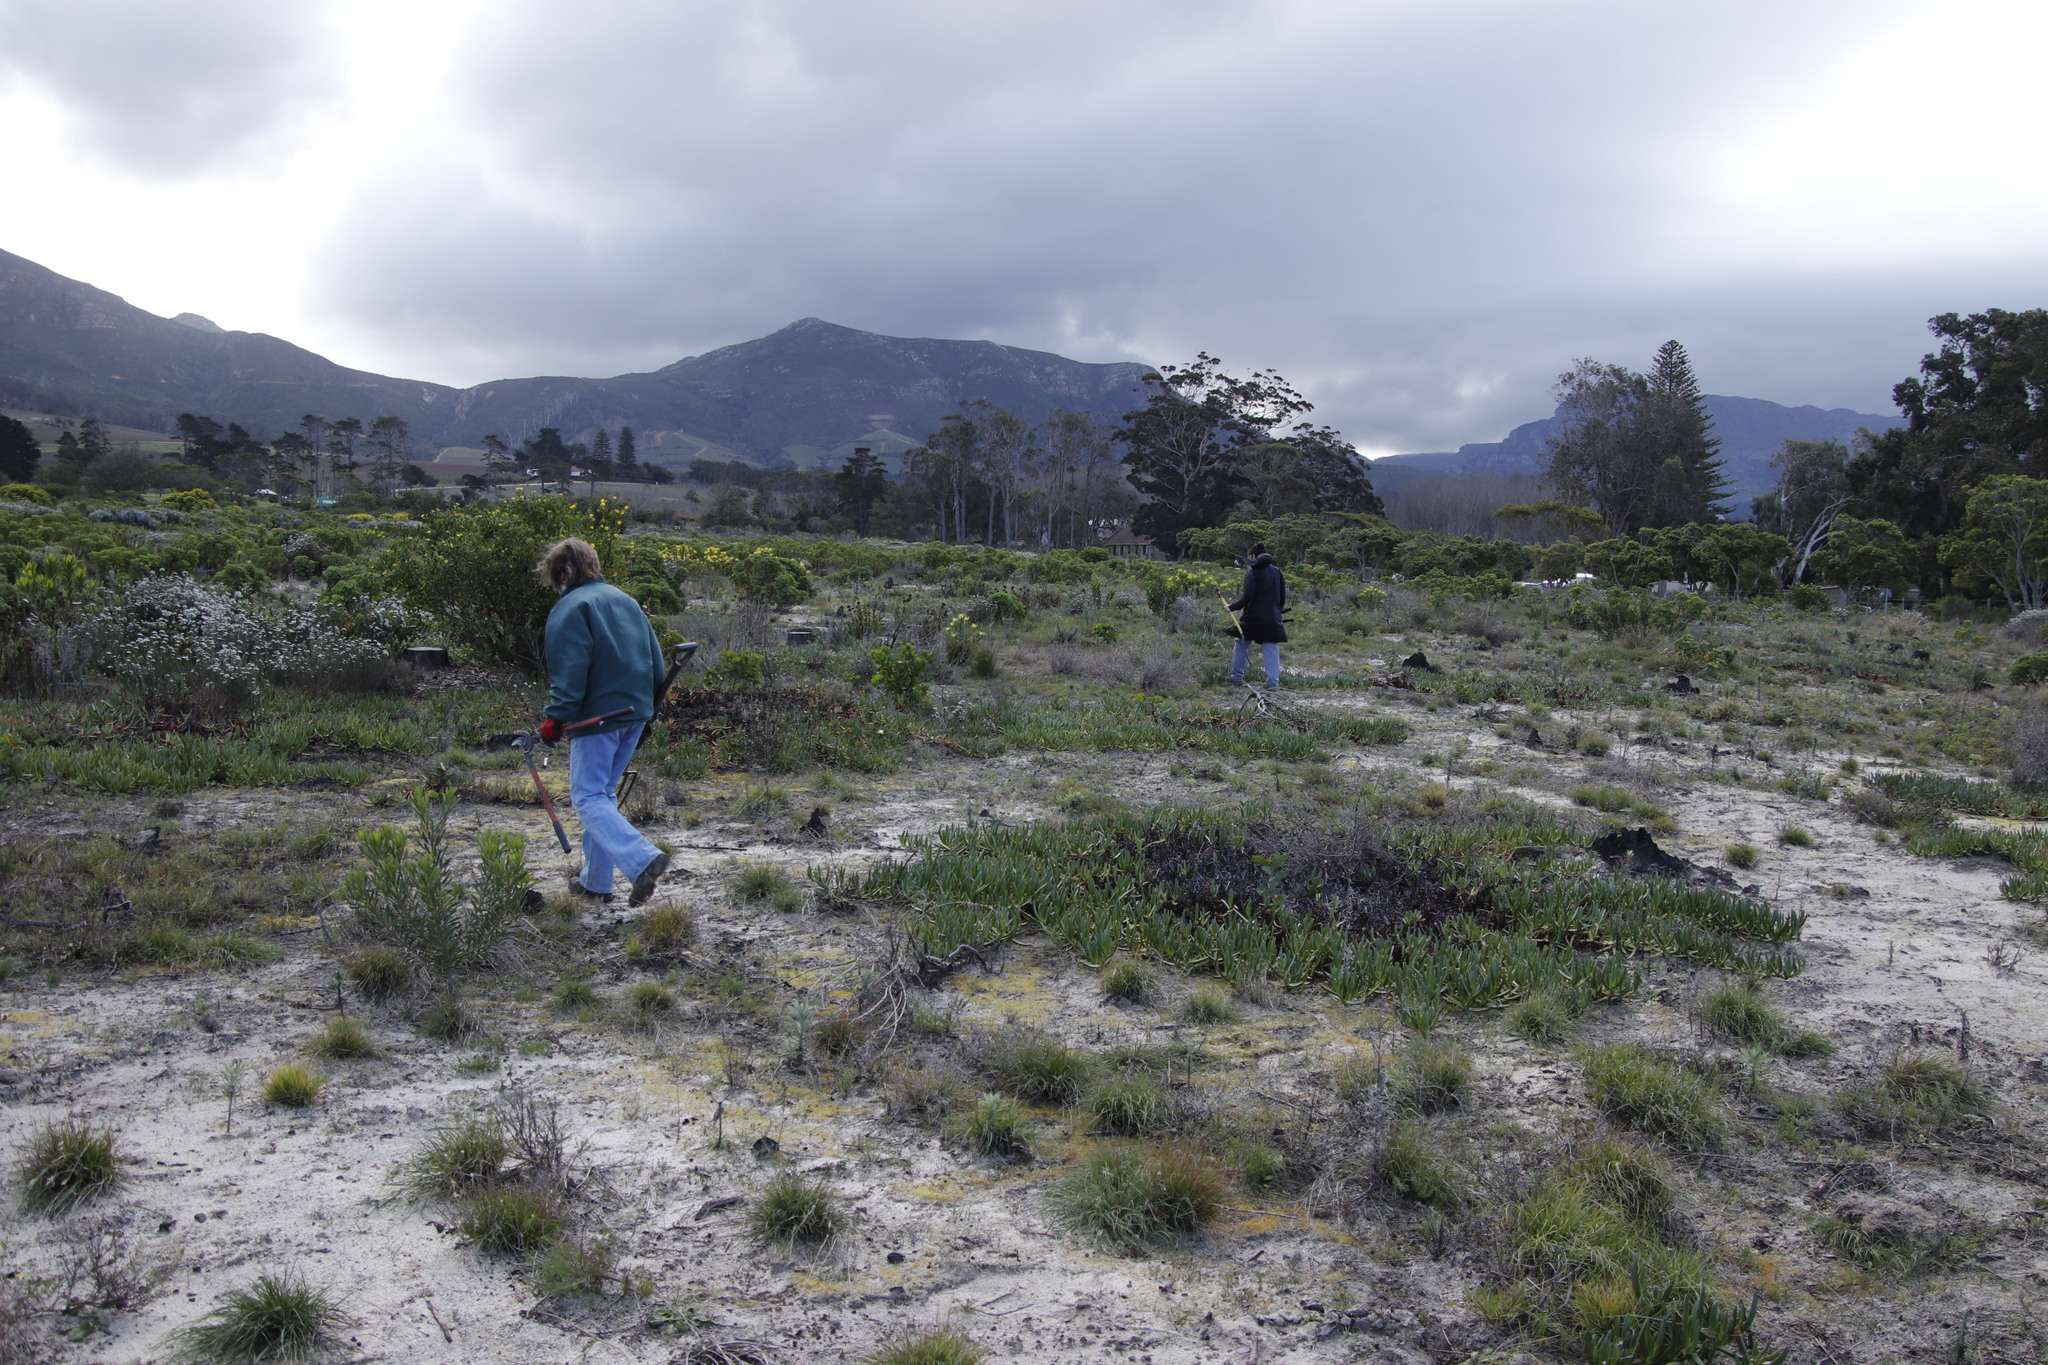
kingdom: Plantae
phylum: Tracheophyta
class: Magnoliopsida
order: Caryophyllales
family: Aizoaceae
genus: Carpobrotus
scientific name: Carpobrotus edulis
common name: Hottentot-fig
